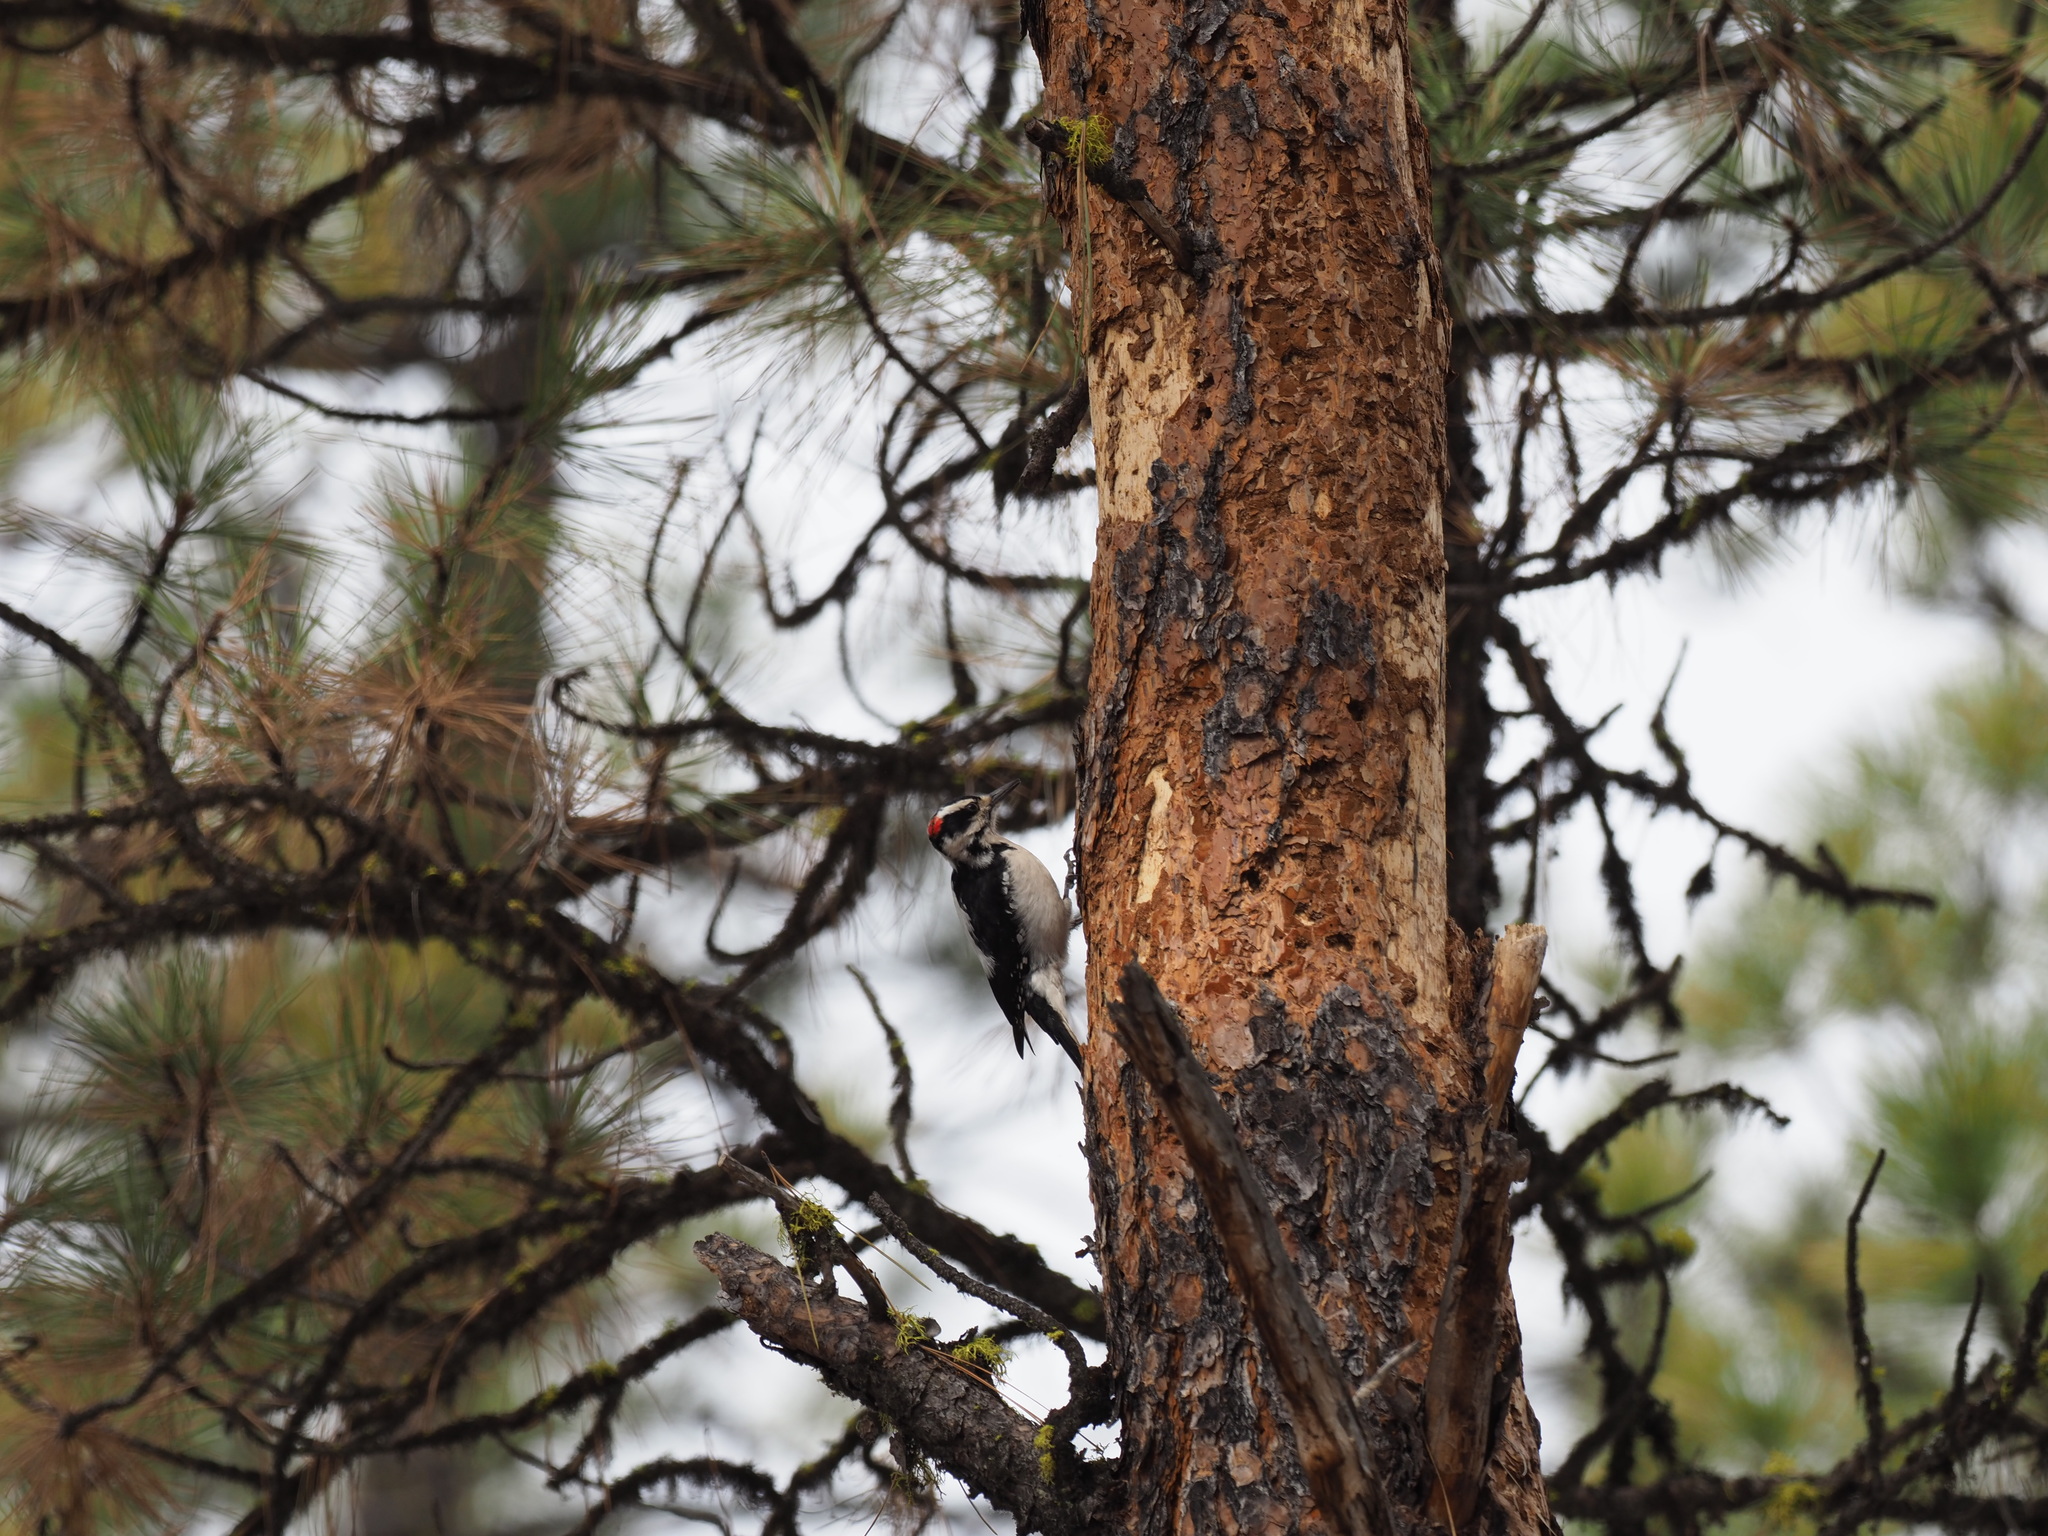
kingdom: Animalia
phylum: Chordata
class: Aves
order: Piciformes
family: Picidae
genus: Leuconotopicus
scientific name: Leuconotopicus villosus
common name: Hairy woodpecker
